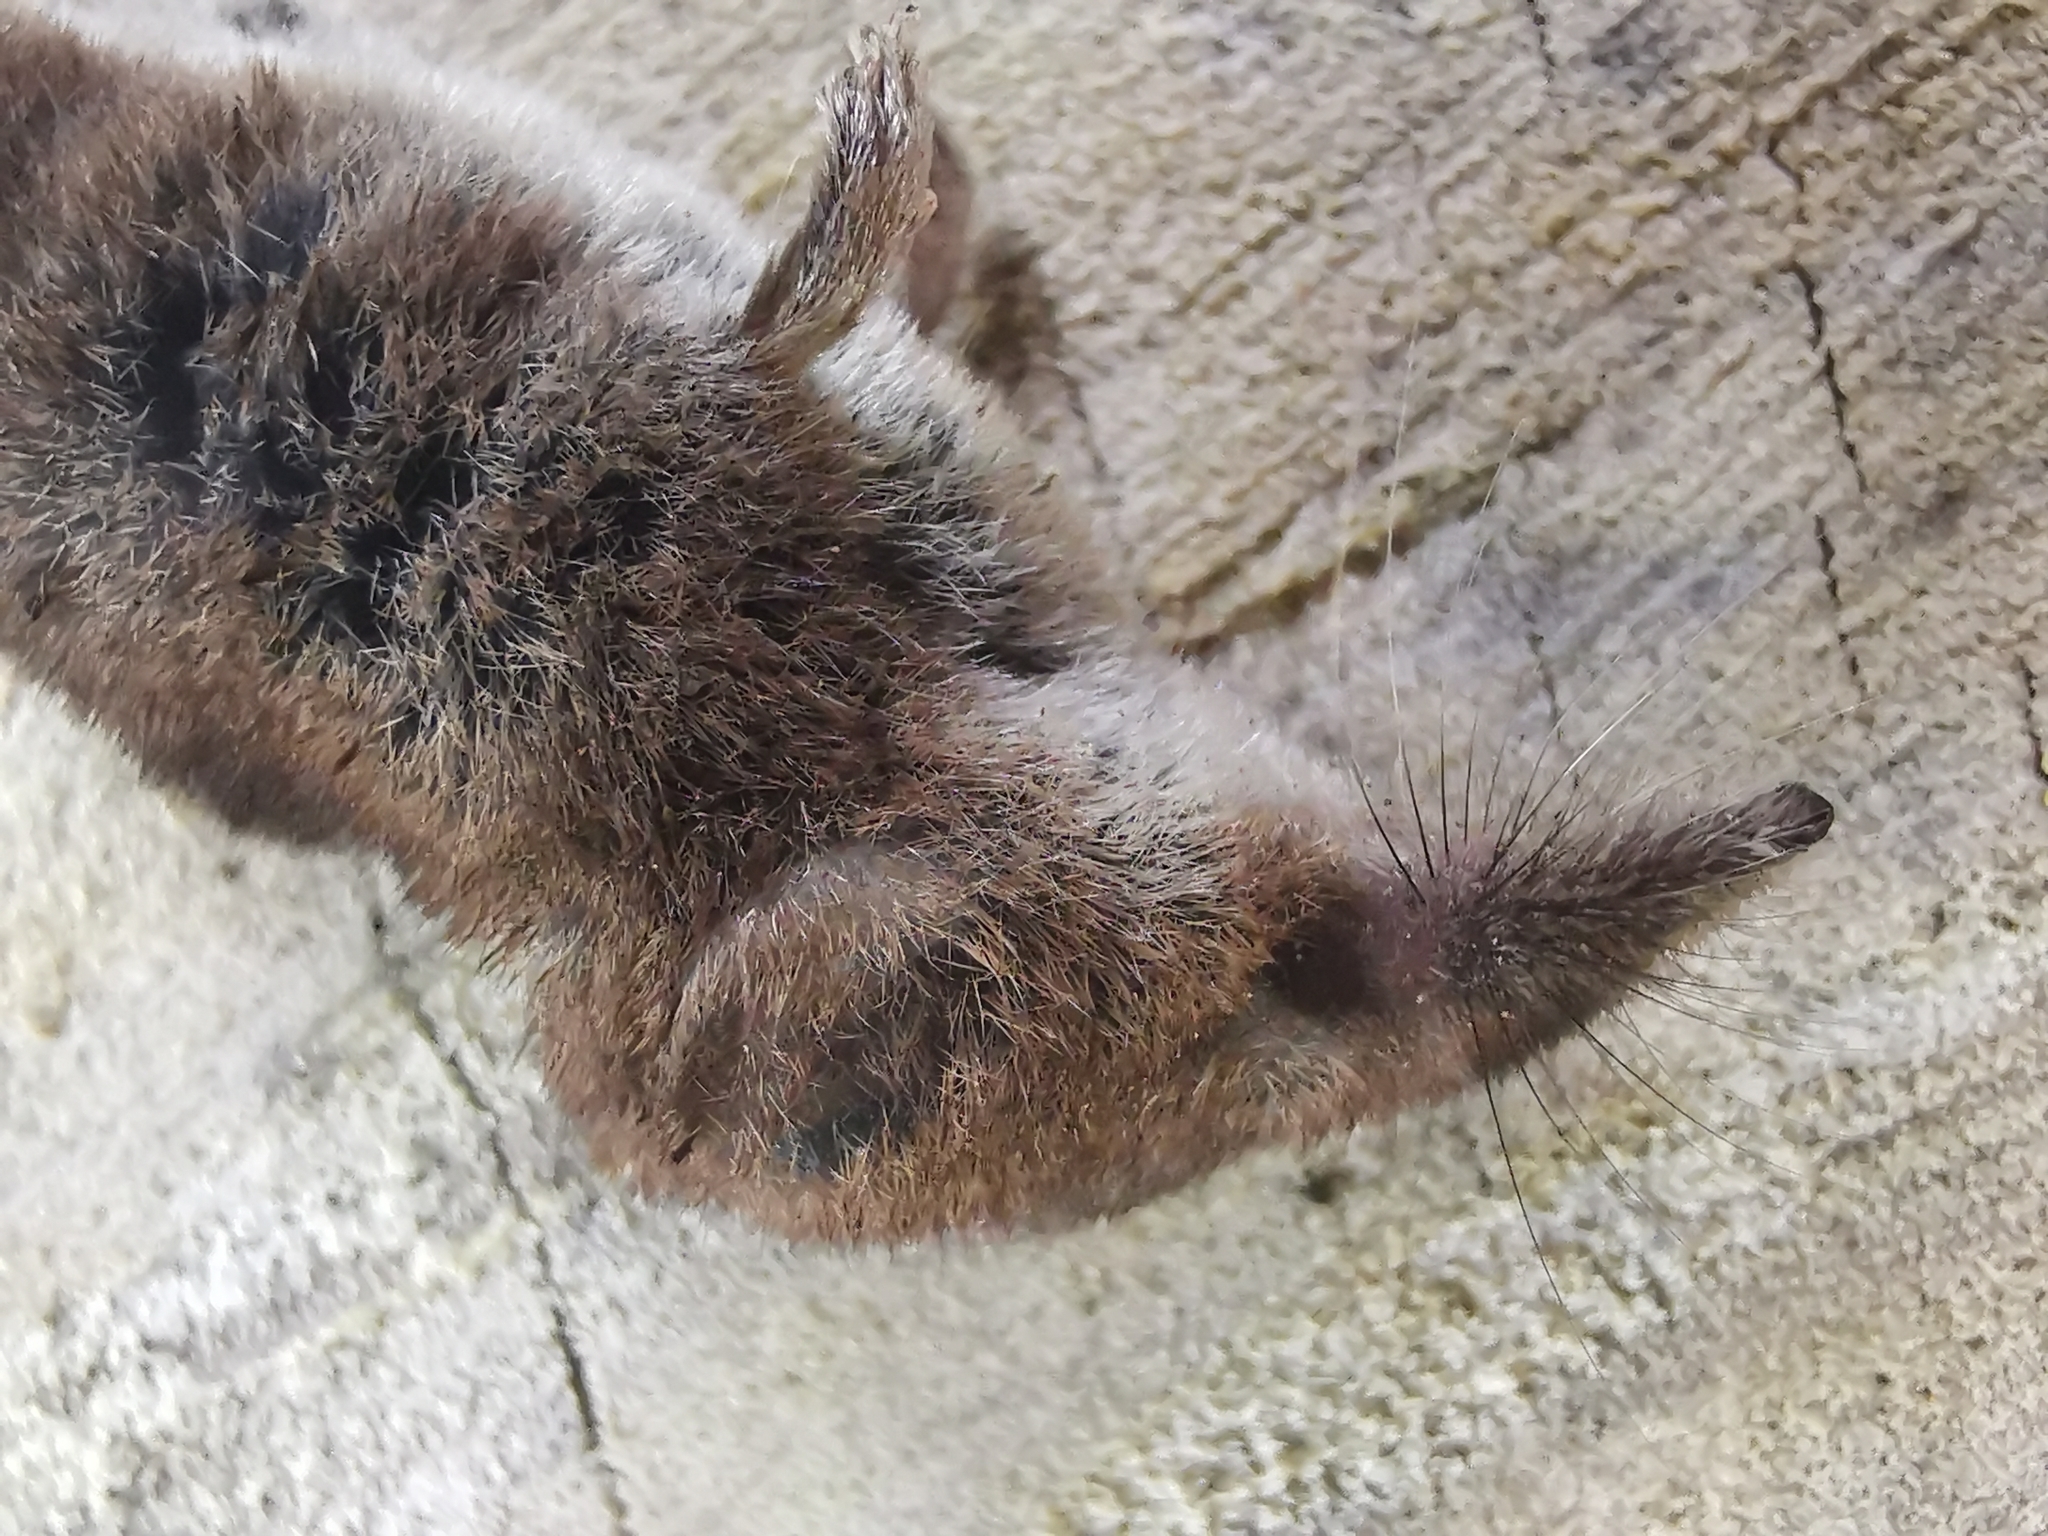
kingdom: Animalia
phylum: Chordata
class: Mammalia
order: Soricomorpha
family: Soricidae
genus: Sorex
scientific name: Sorex minutus
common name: Eurasian pygmy shrew
